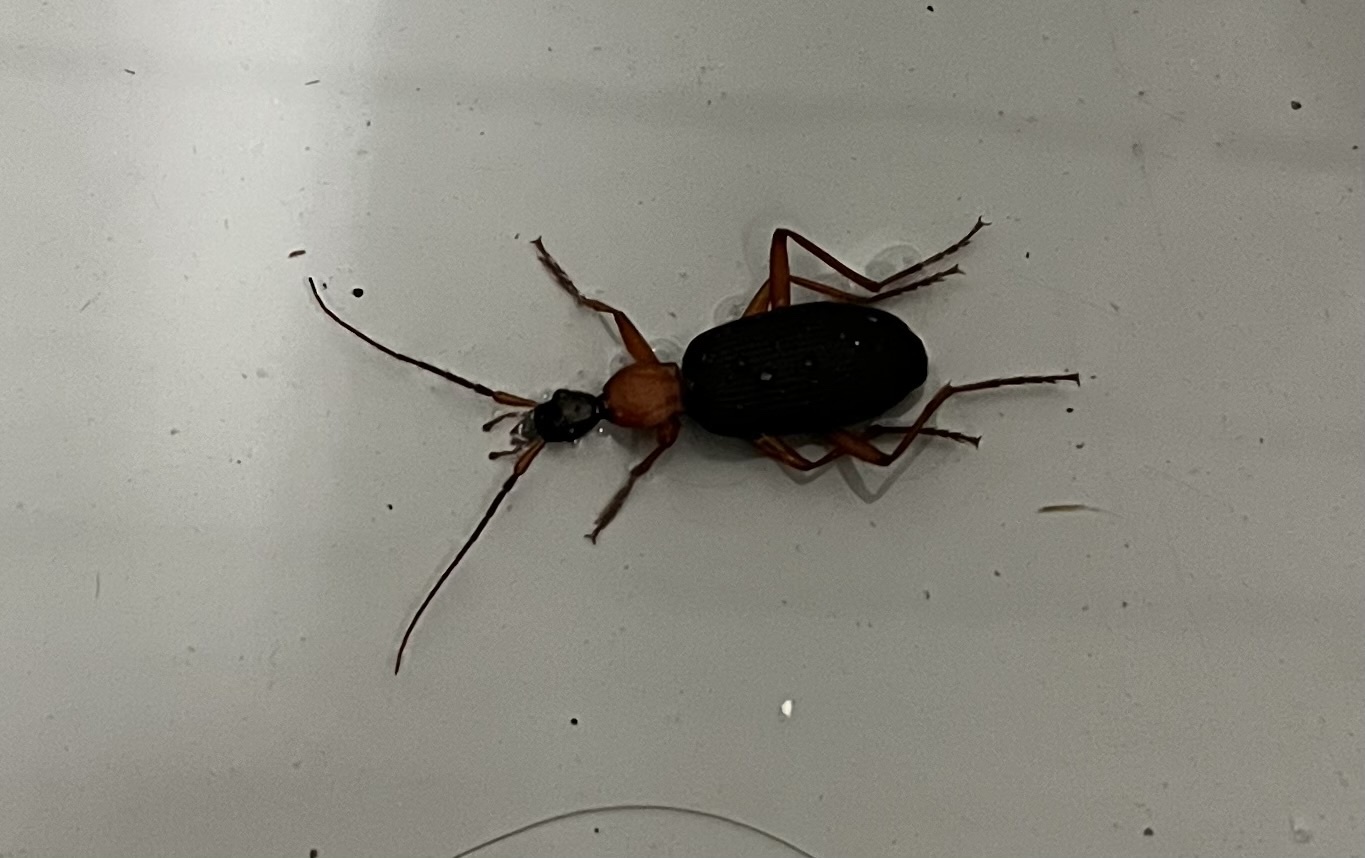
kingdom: Animalia
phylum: Arthropoda
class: Insecta
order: Coleoptera
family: Carabidae
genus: Galerita
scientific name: Galerita bicolor
